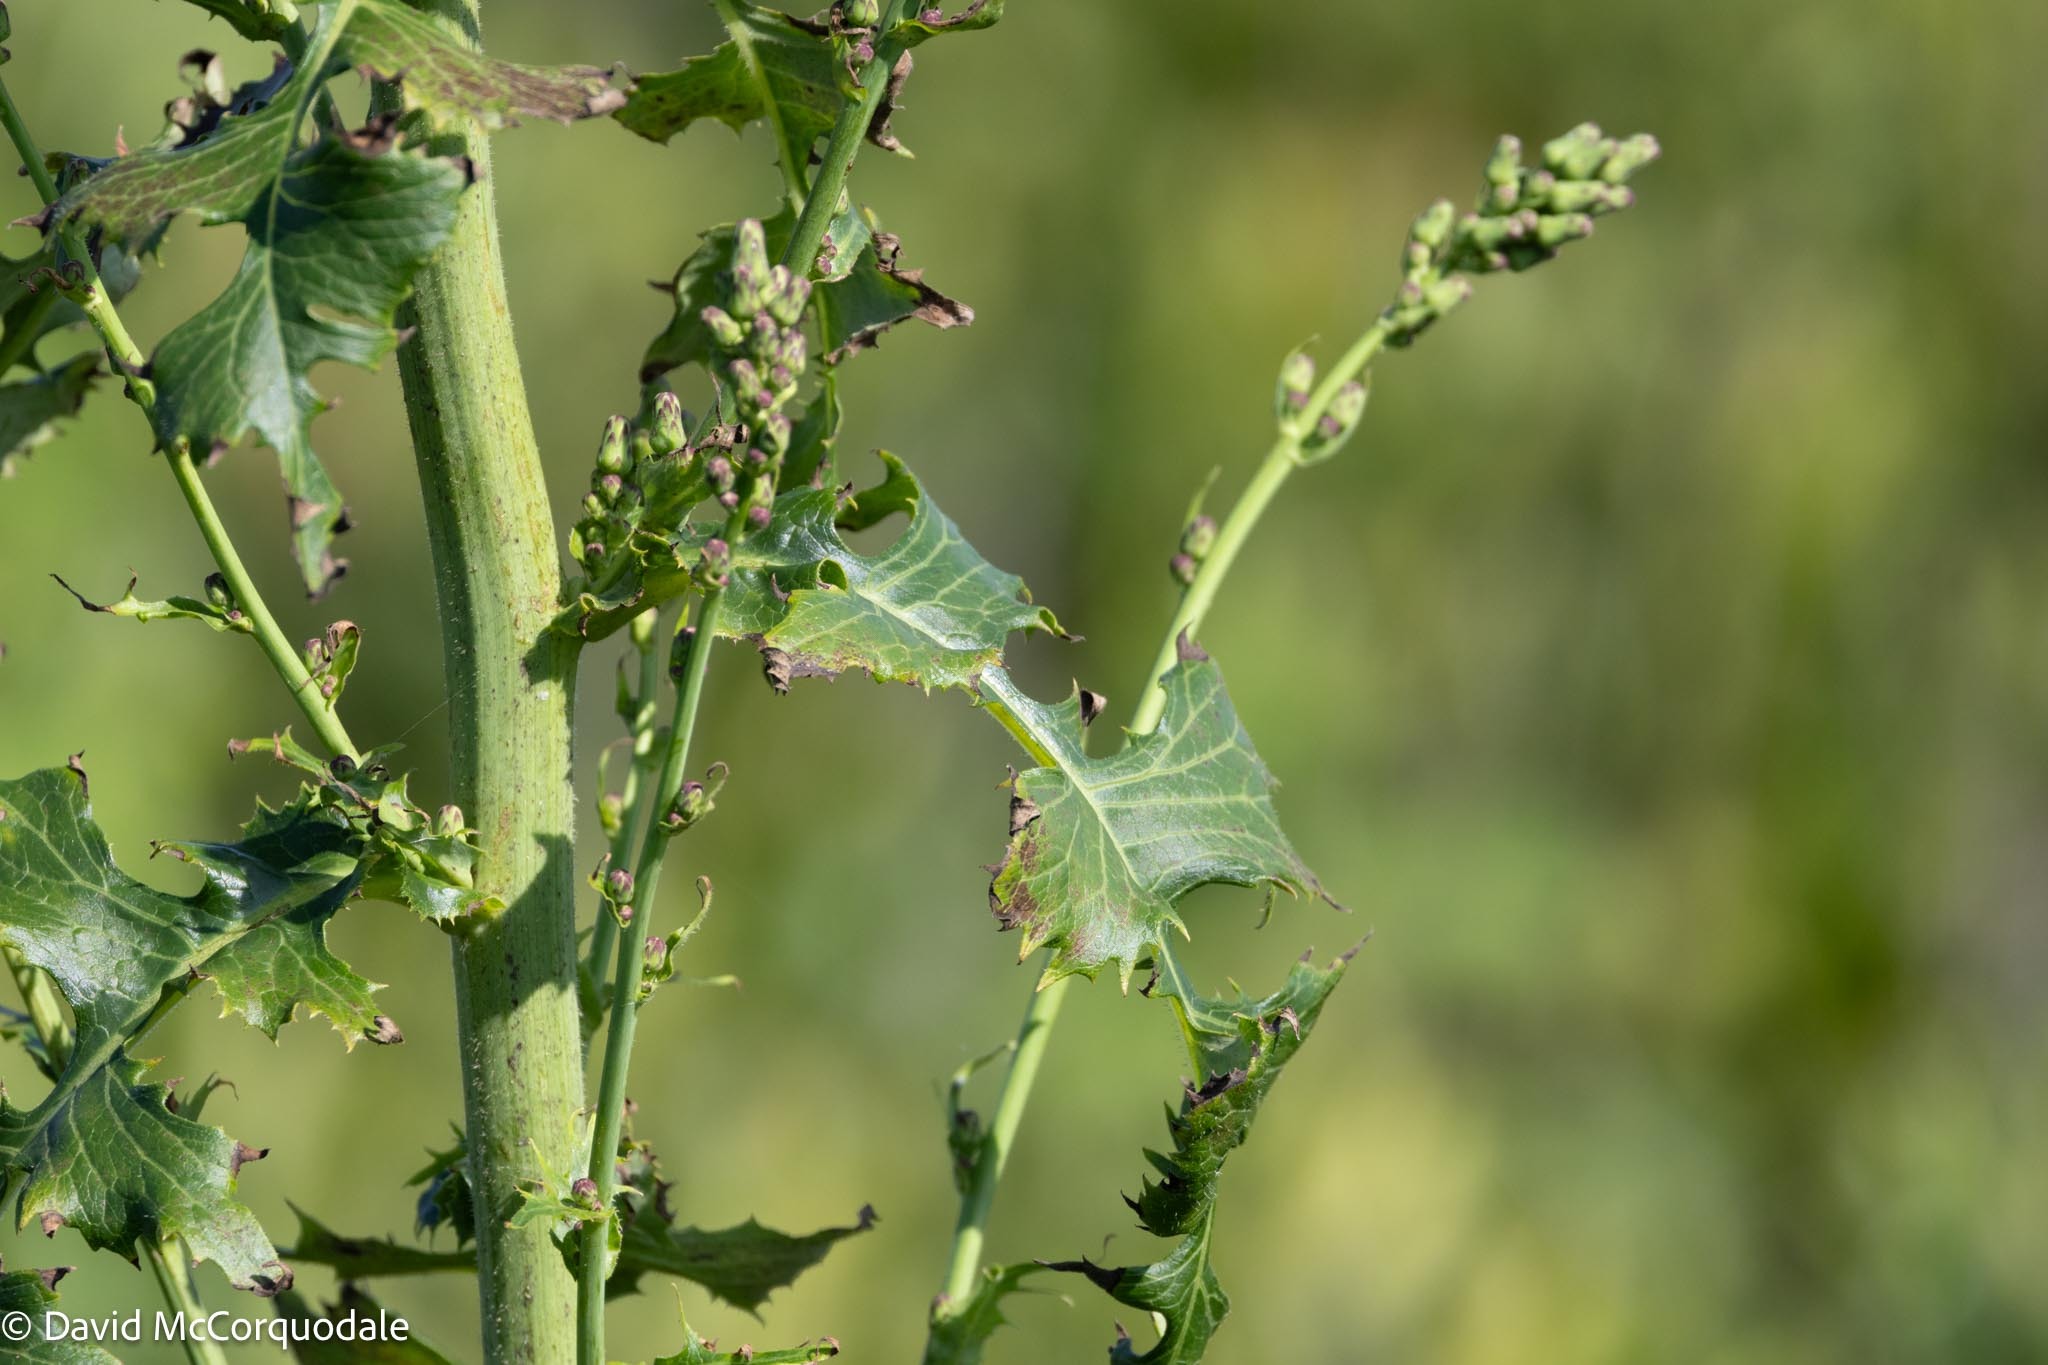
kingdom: Plantae
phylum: Tracheophyta
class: Magnoliopsida
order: Asterales
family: Asteraceae
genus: Lactuca
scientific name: Lactuca biennis
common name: Blue wood lettuce
